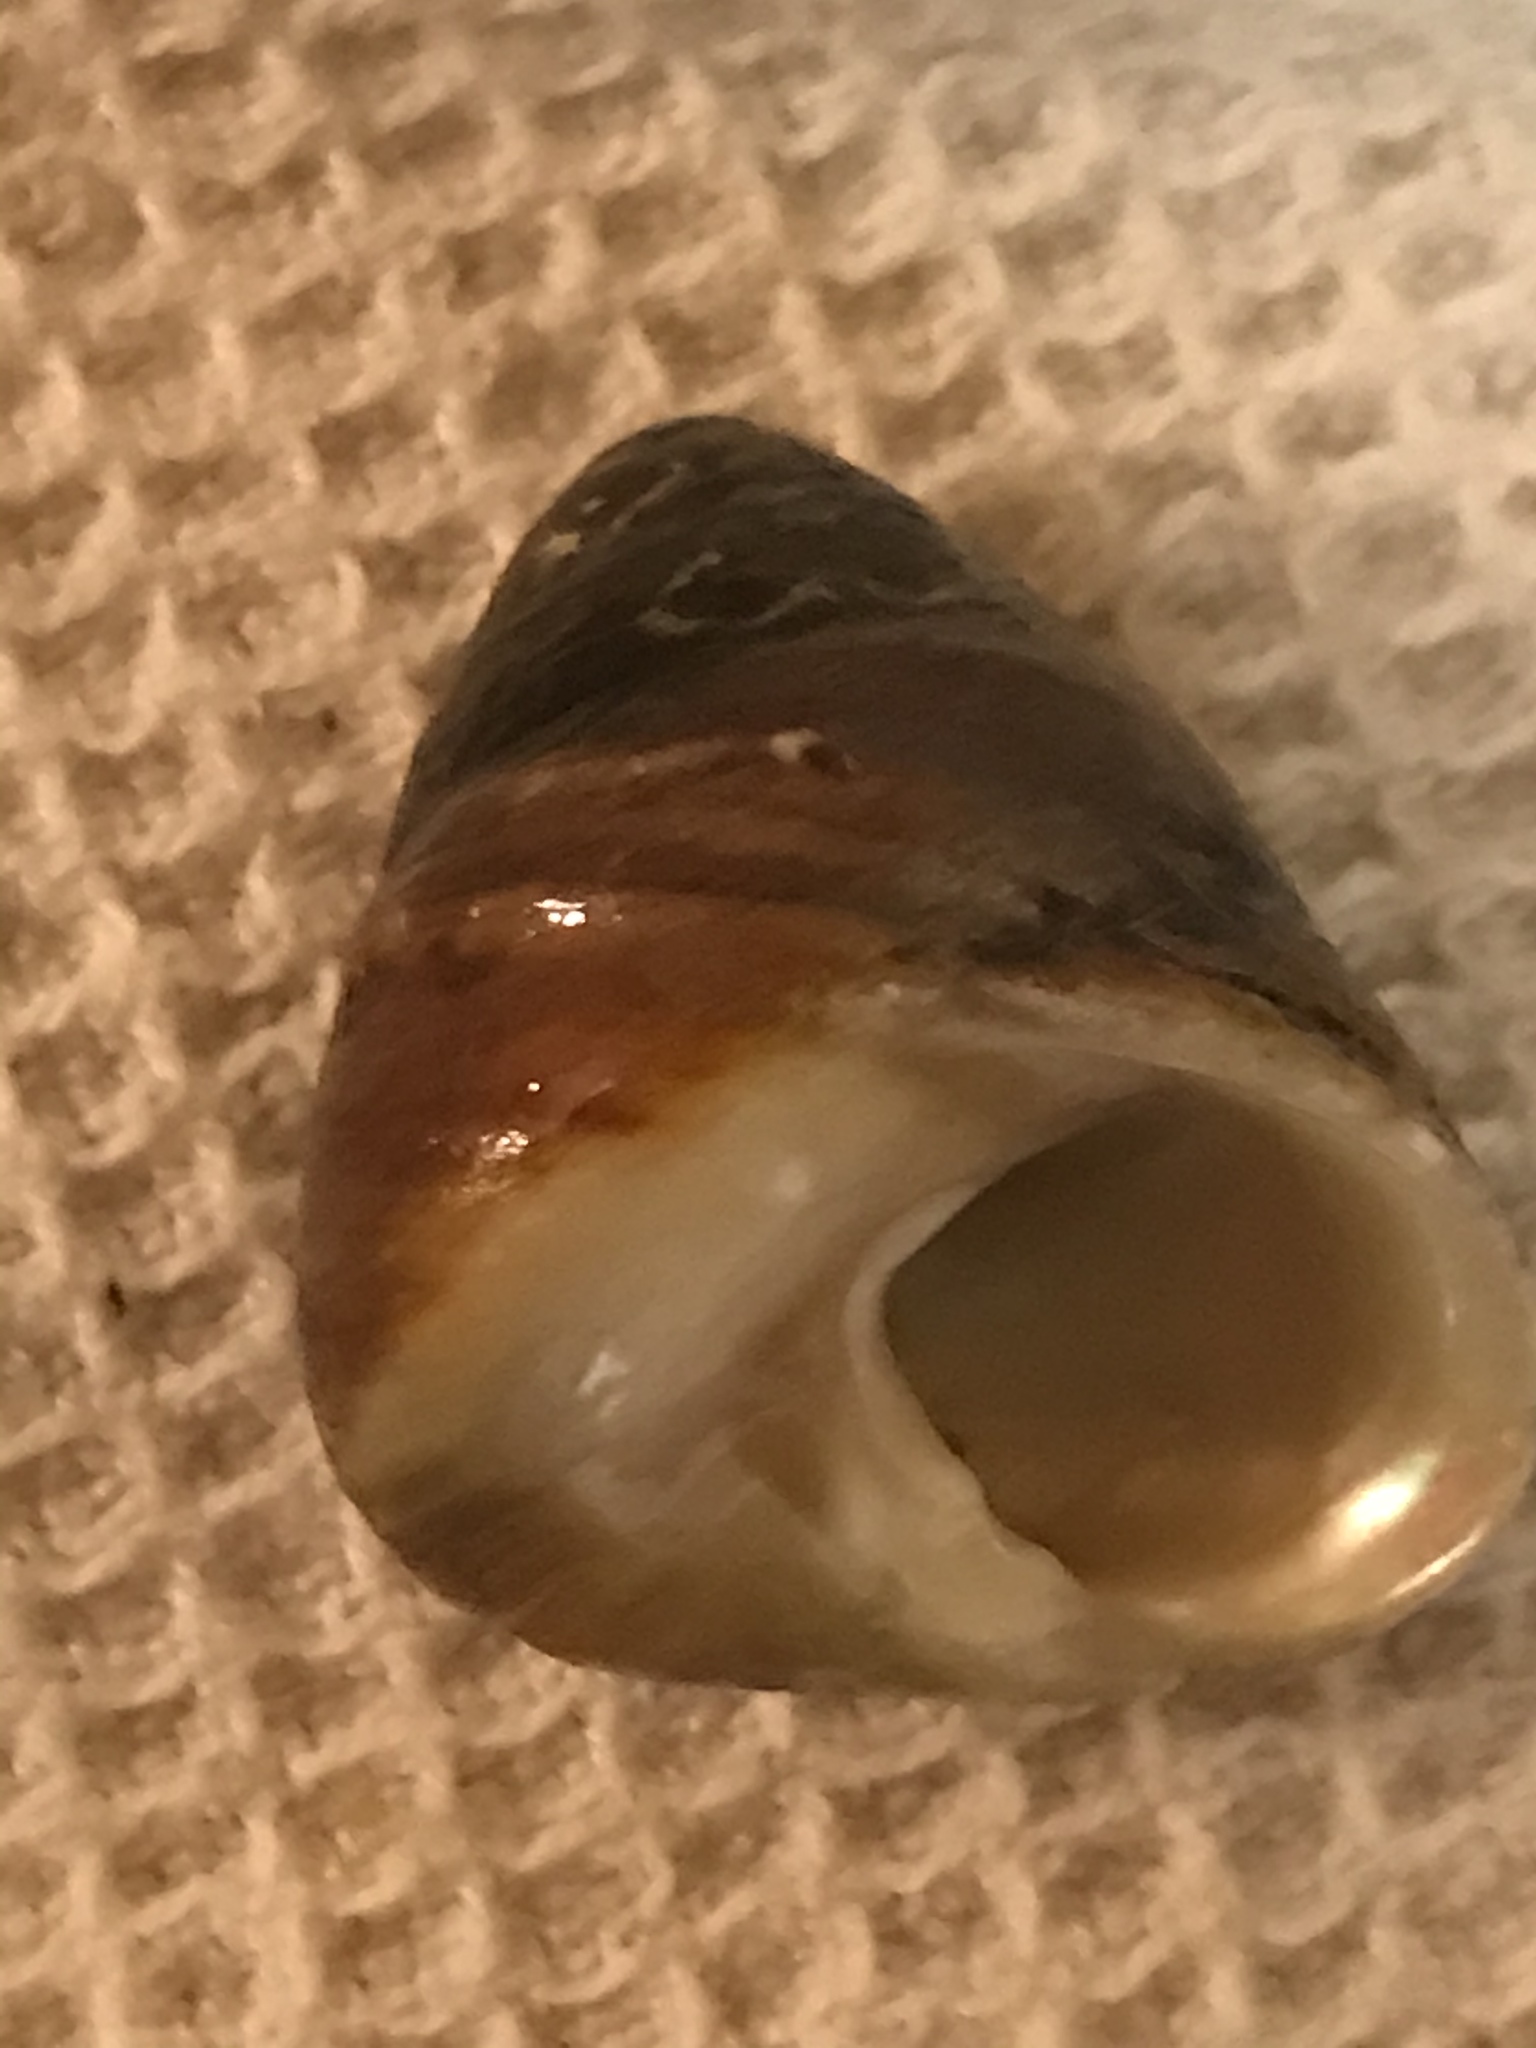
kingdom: Animalia
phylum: Mollusca
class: Gastropoda
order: Trochida
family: Tegulidae
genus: Tegula
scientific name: Tegula brunnea
